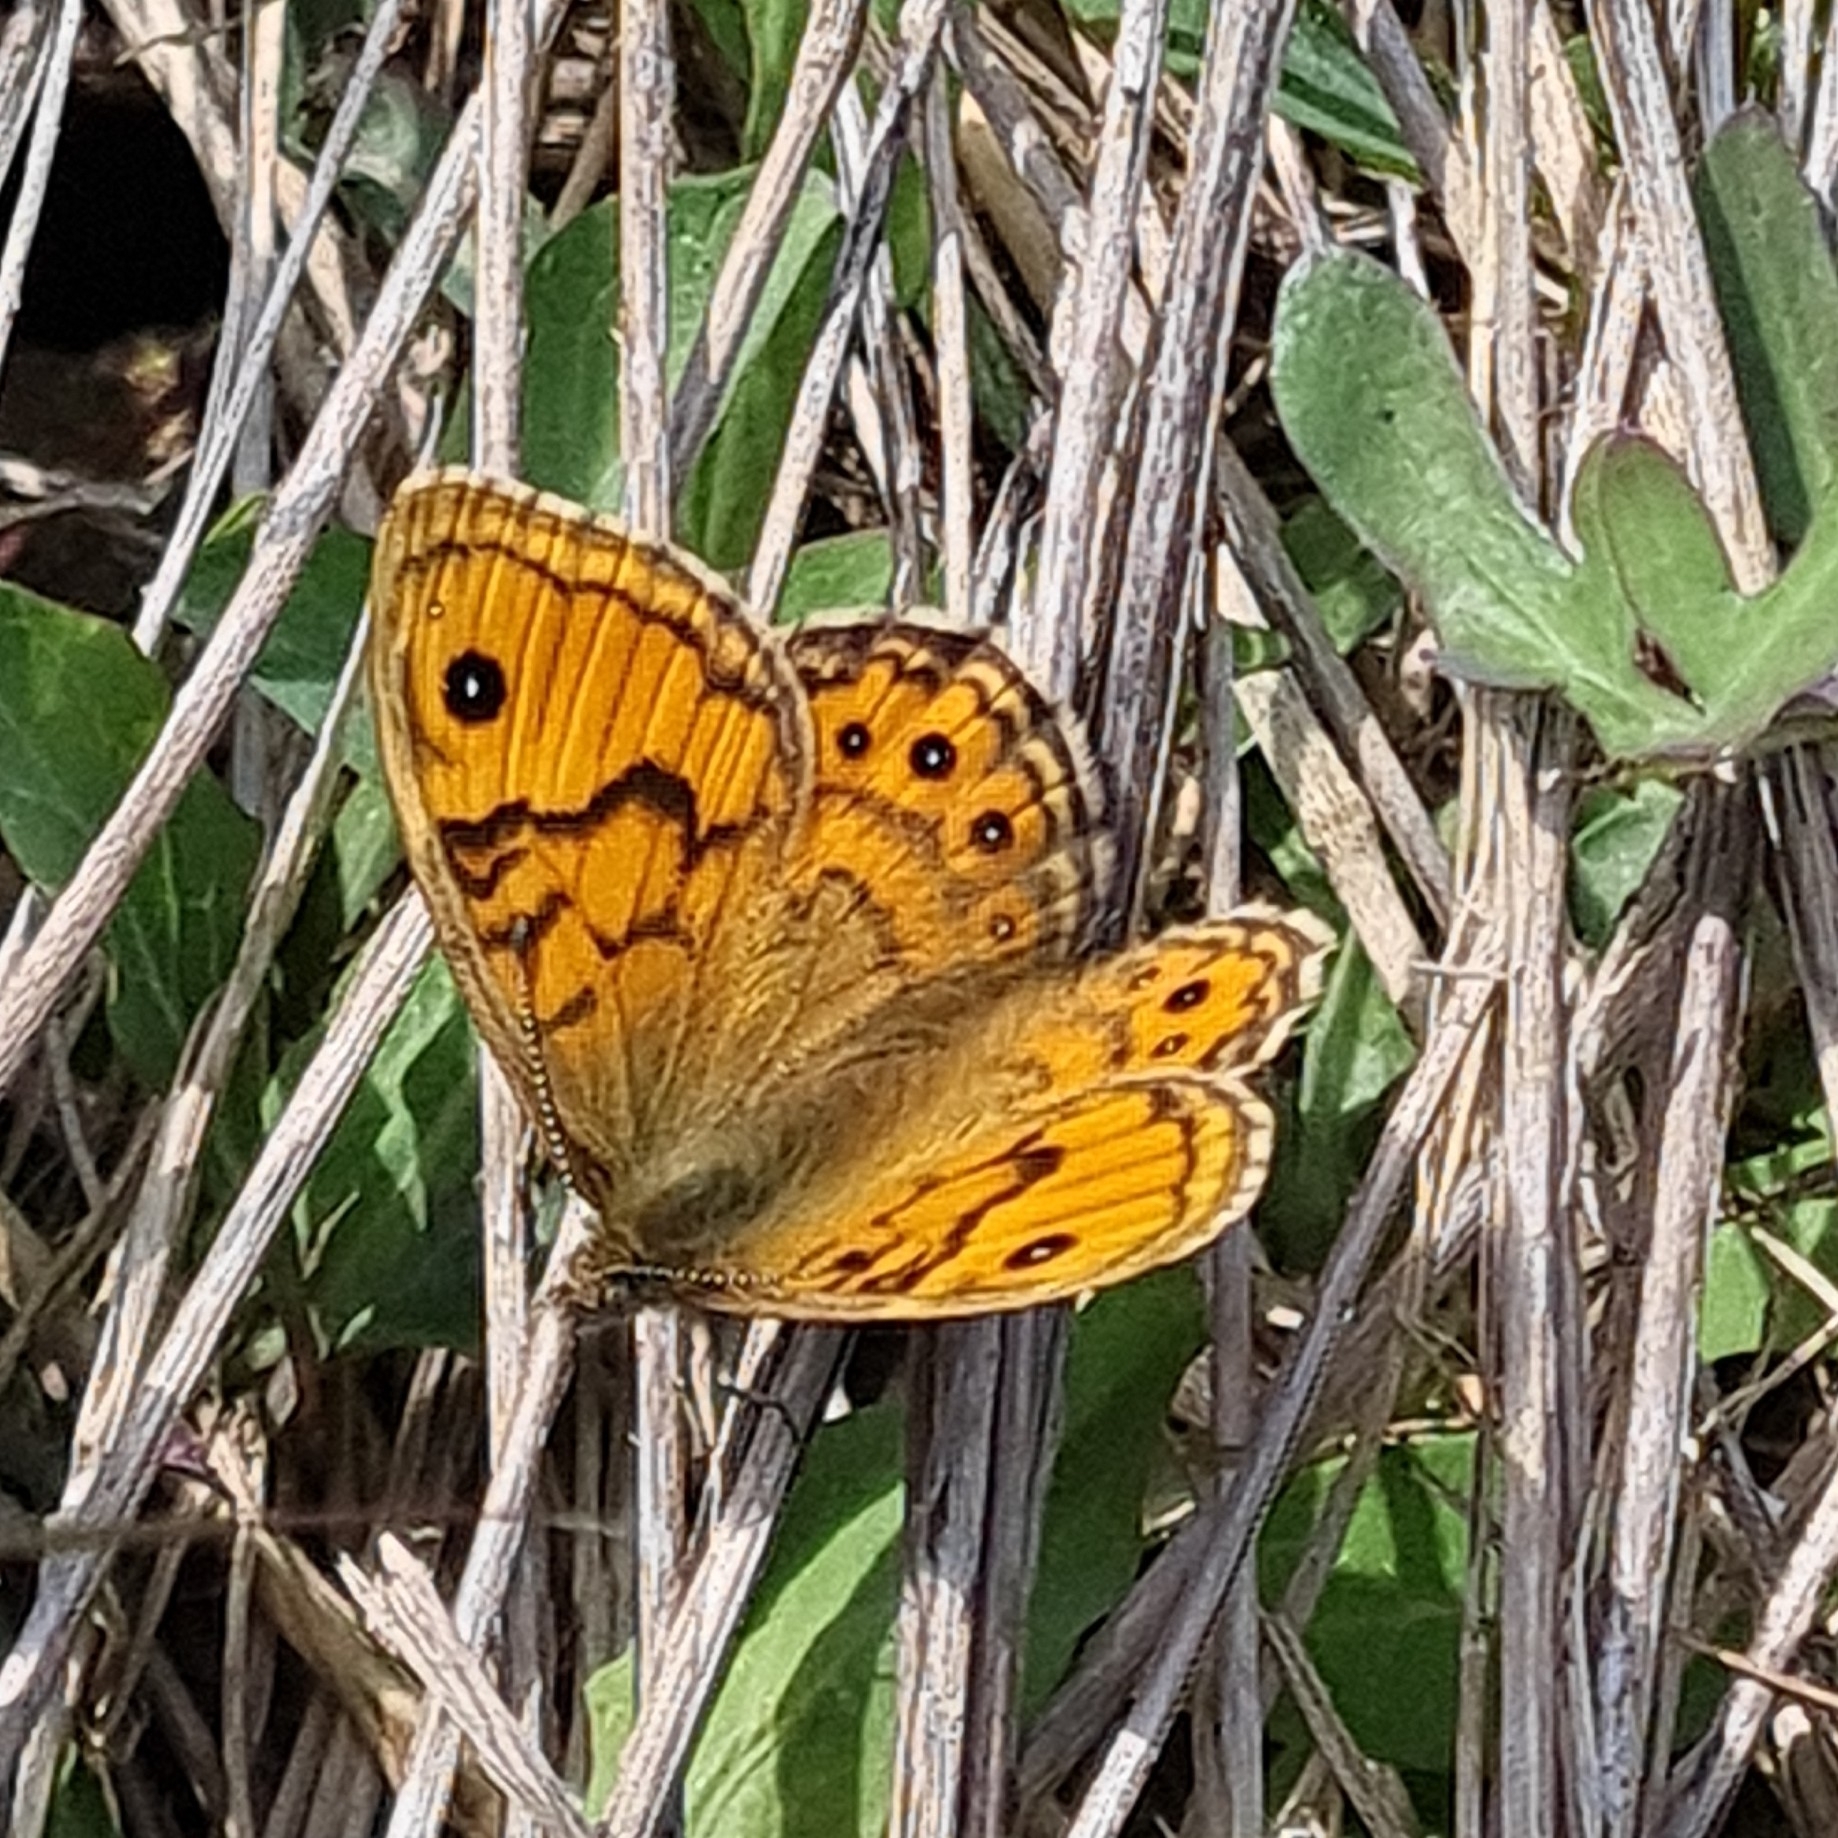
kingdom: Animalia
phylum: Arthropoda
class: Insecta
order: Lepidoptera
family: Nymphalidae
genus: Pararge
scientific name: Pararge Lasiommata megera
